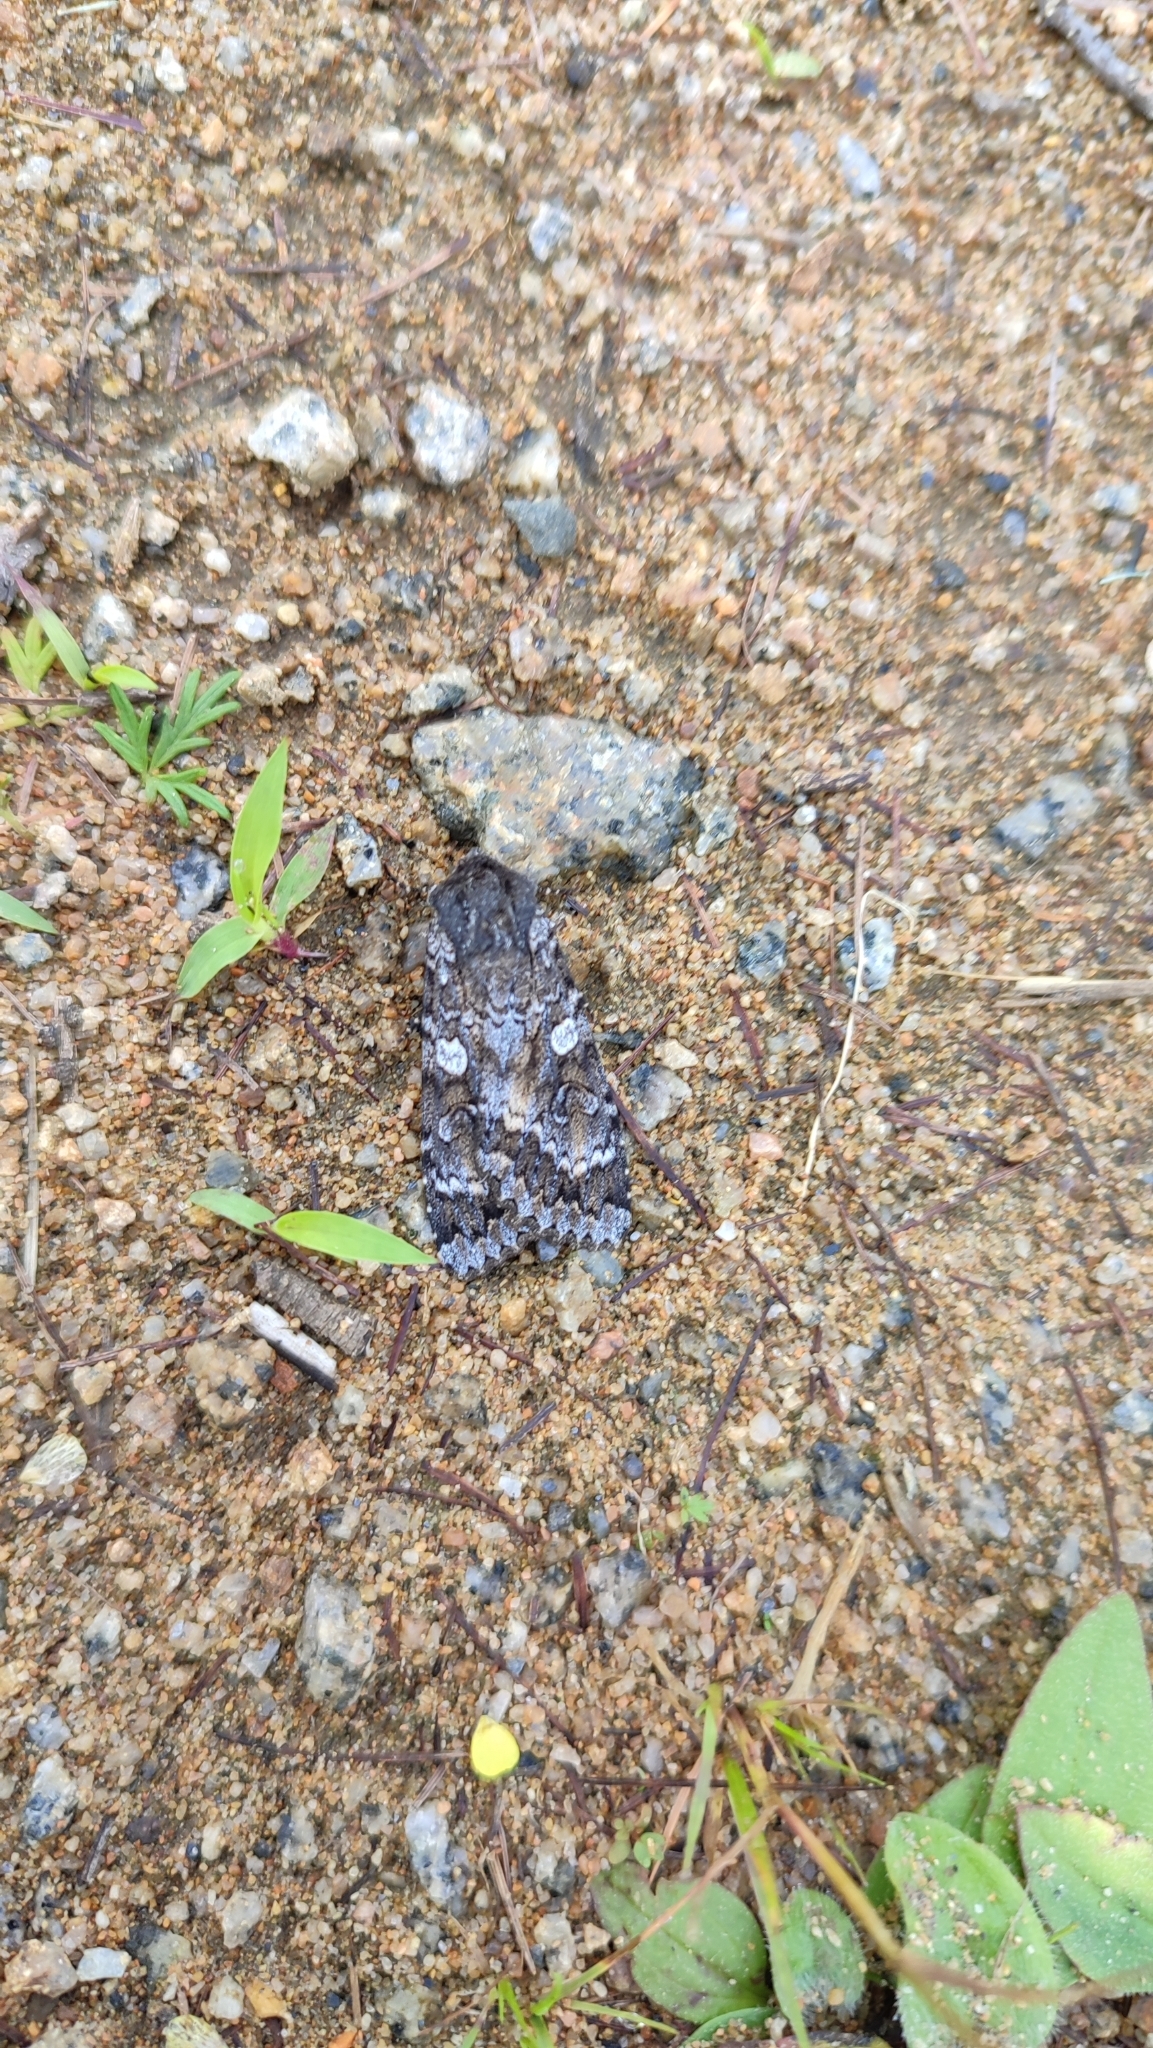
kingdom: Animalia
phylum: Arthropoda
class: Insecta
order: Lepidoptera
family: Noctuidae
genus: Eurois
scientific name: Eurois occulta
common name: Great brocade
